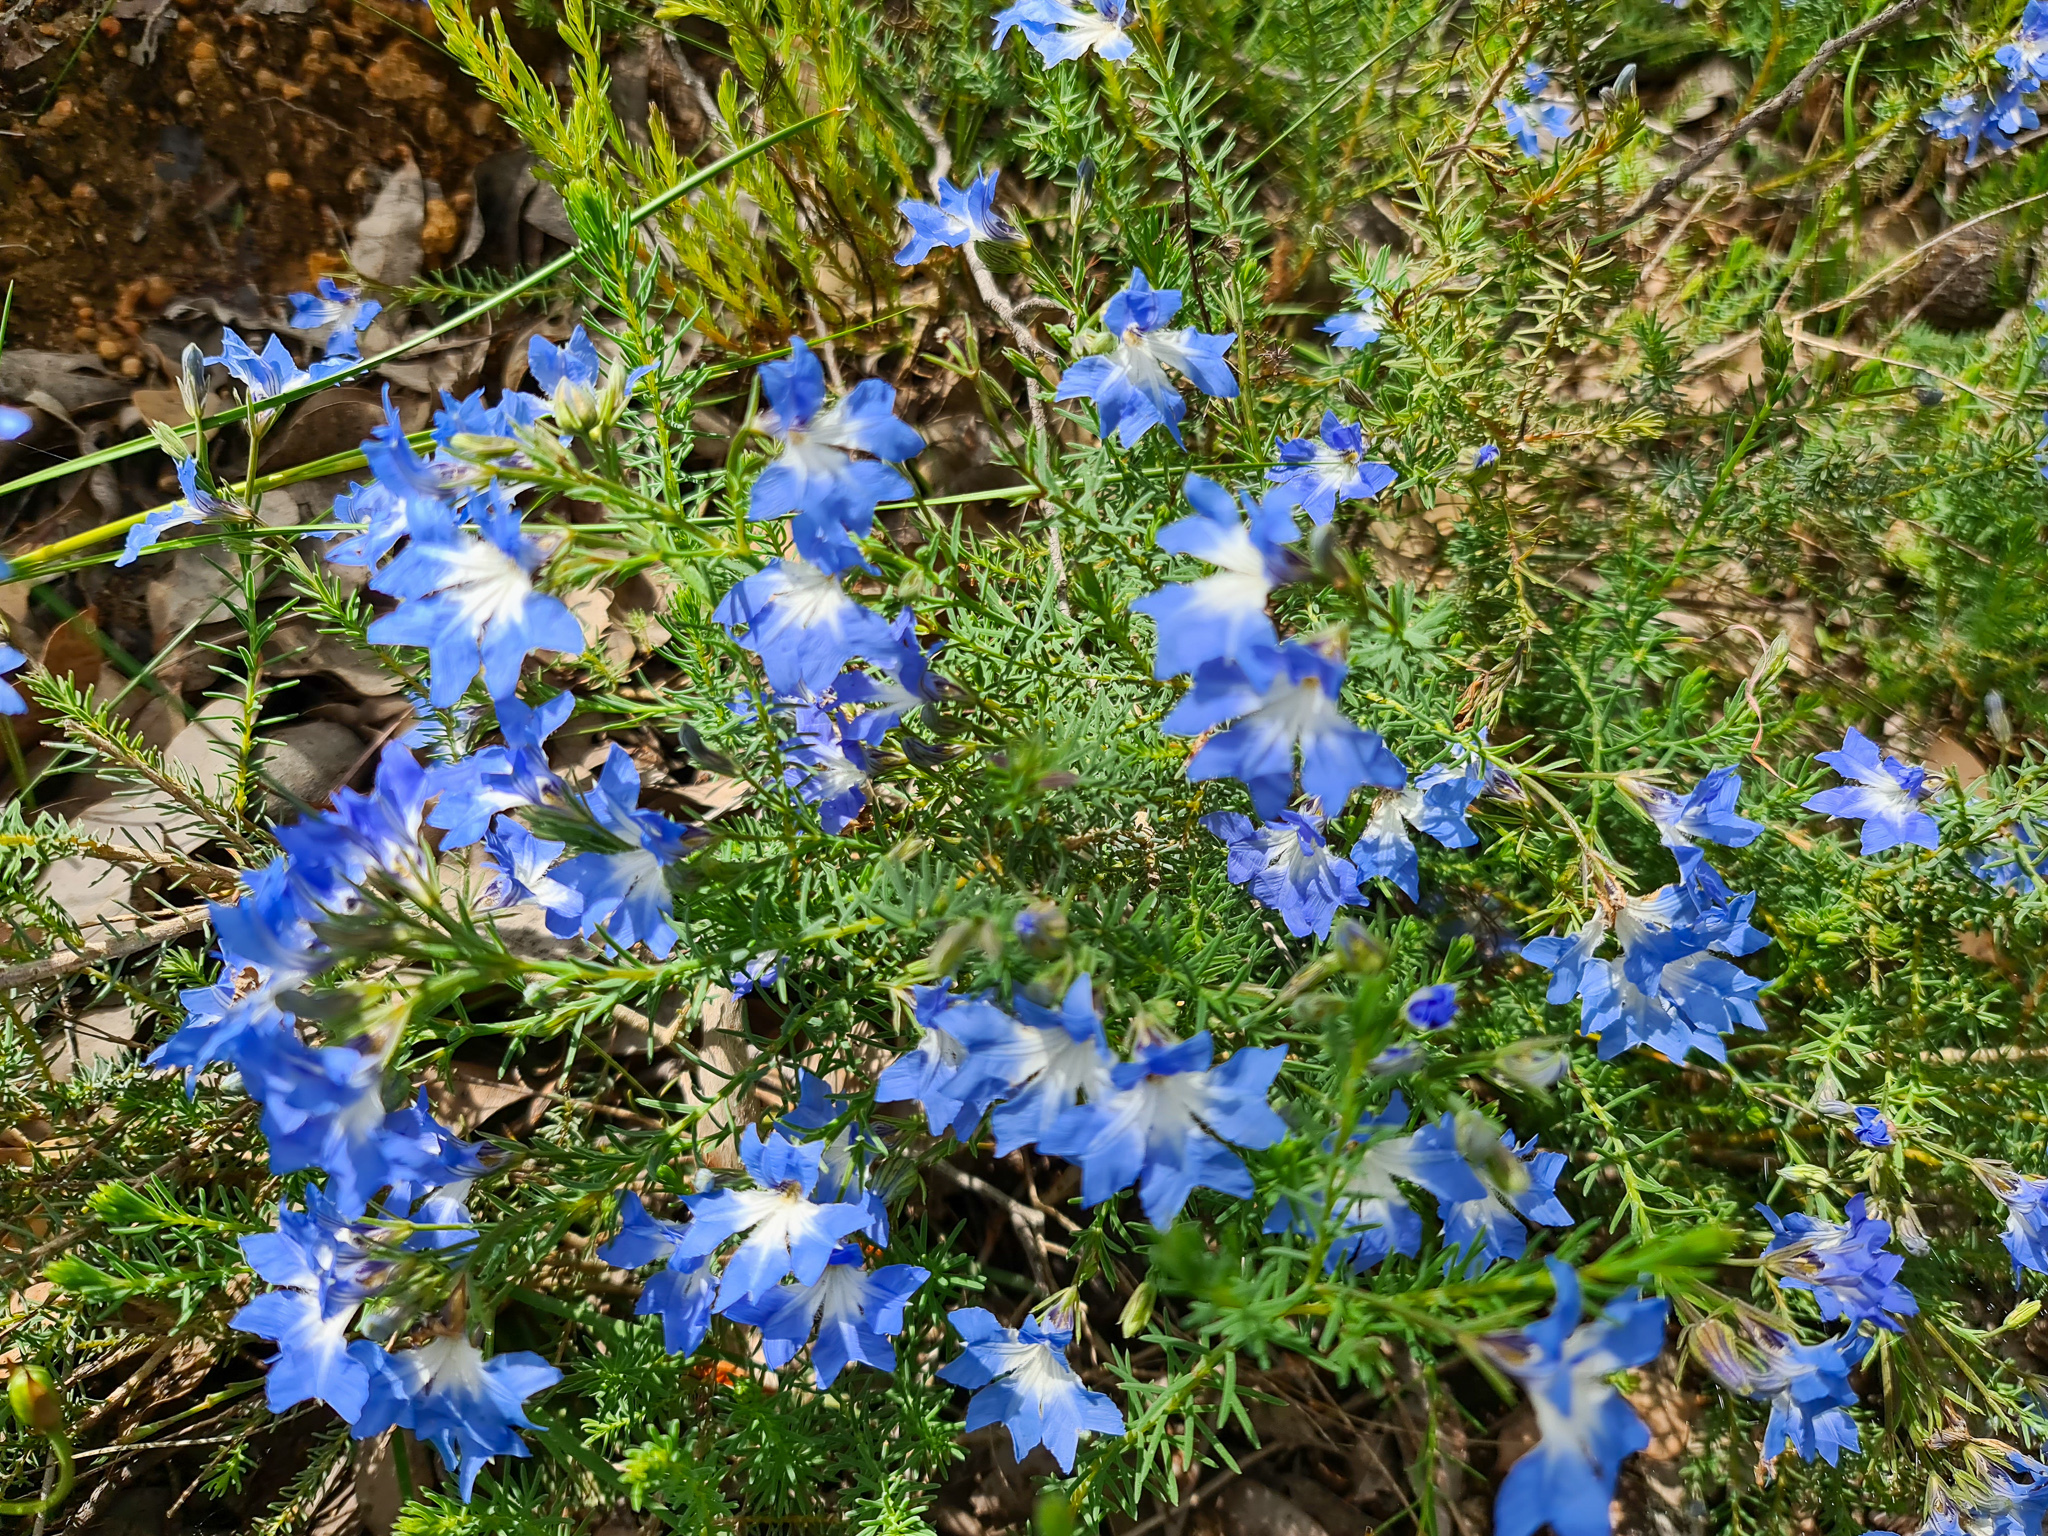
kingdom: Plantae
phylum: Tracheophyta
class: Magnoliopsida
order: Asterales
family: Goodeniaceae
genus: Lechenaultia
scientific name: Lechenaultia biloba
